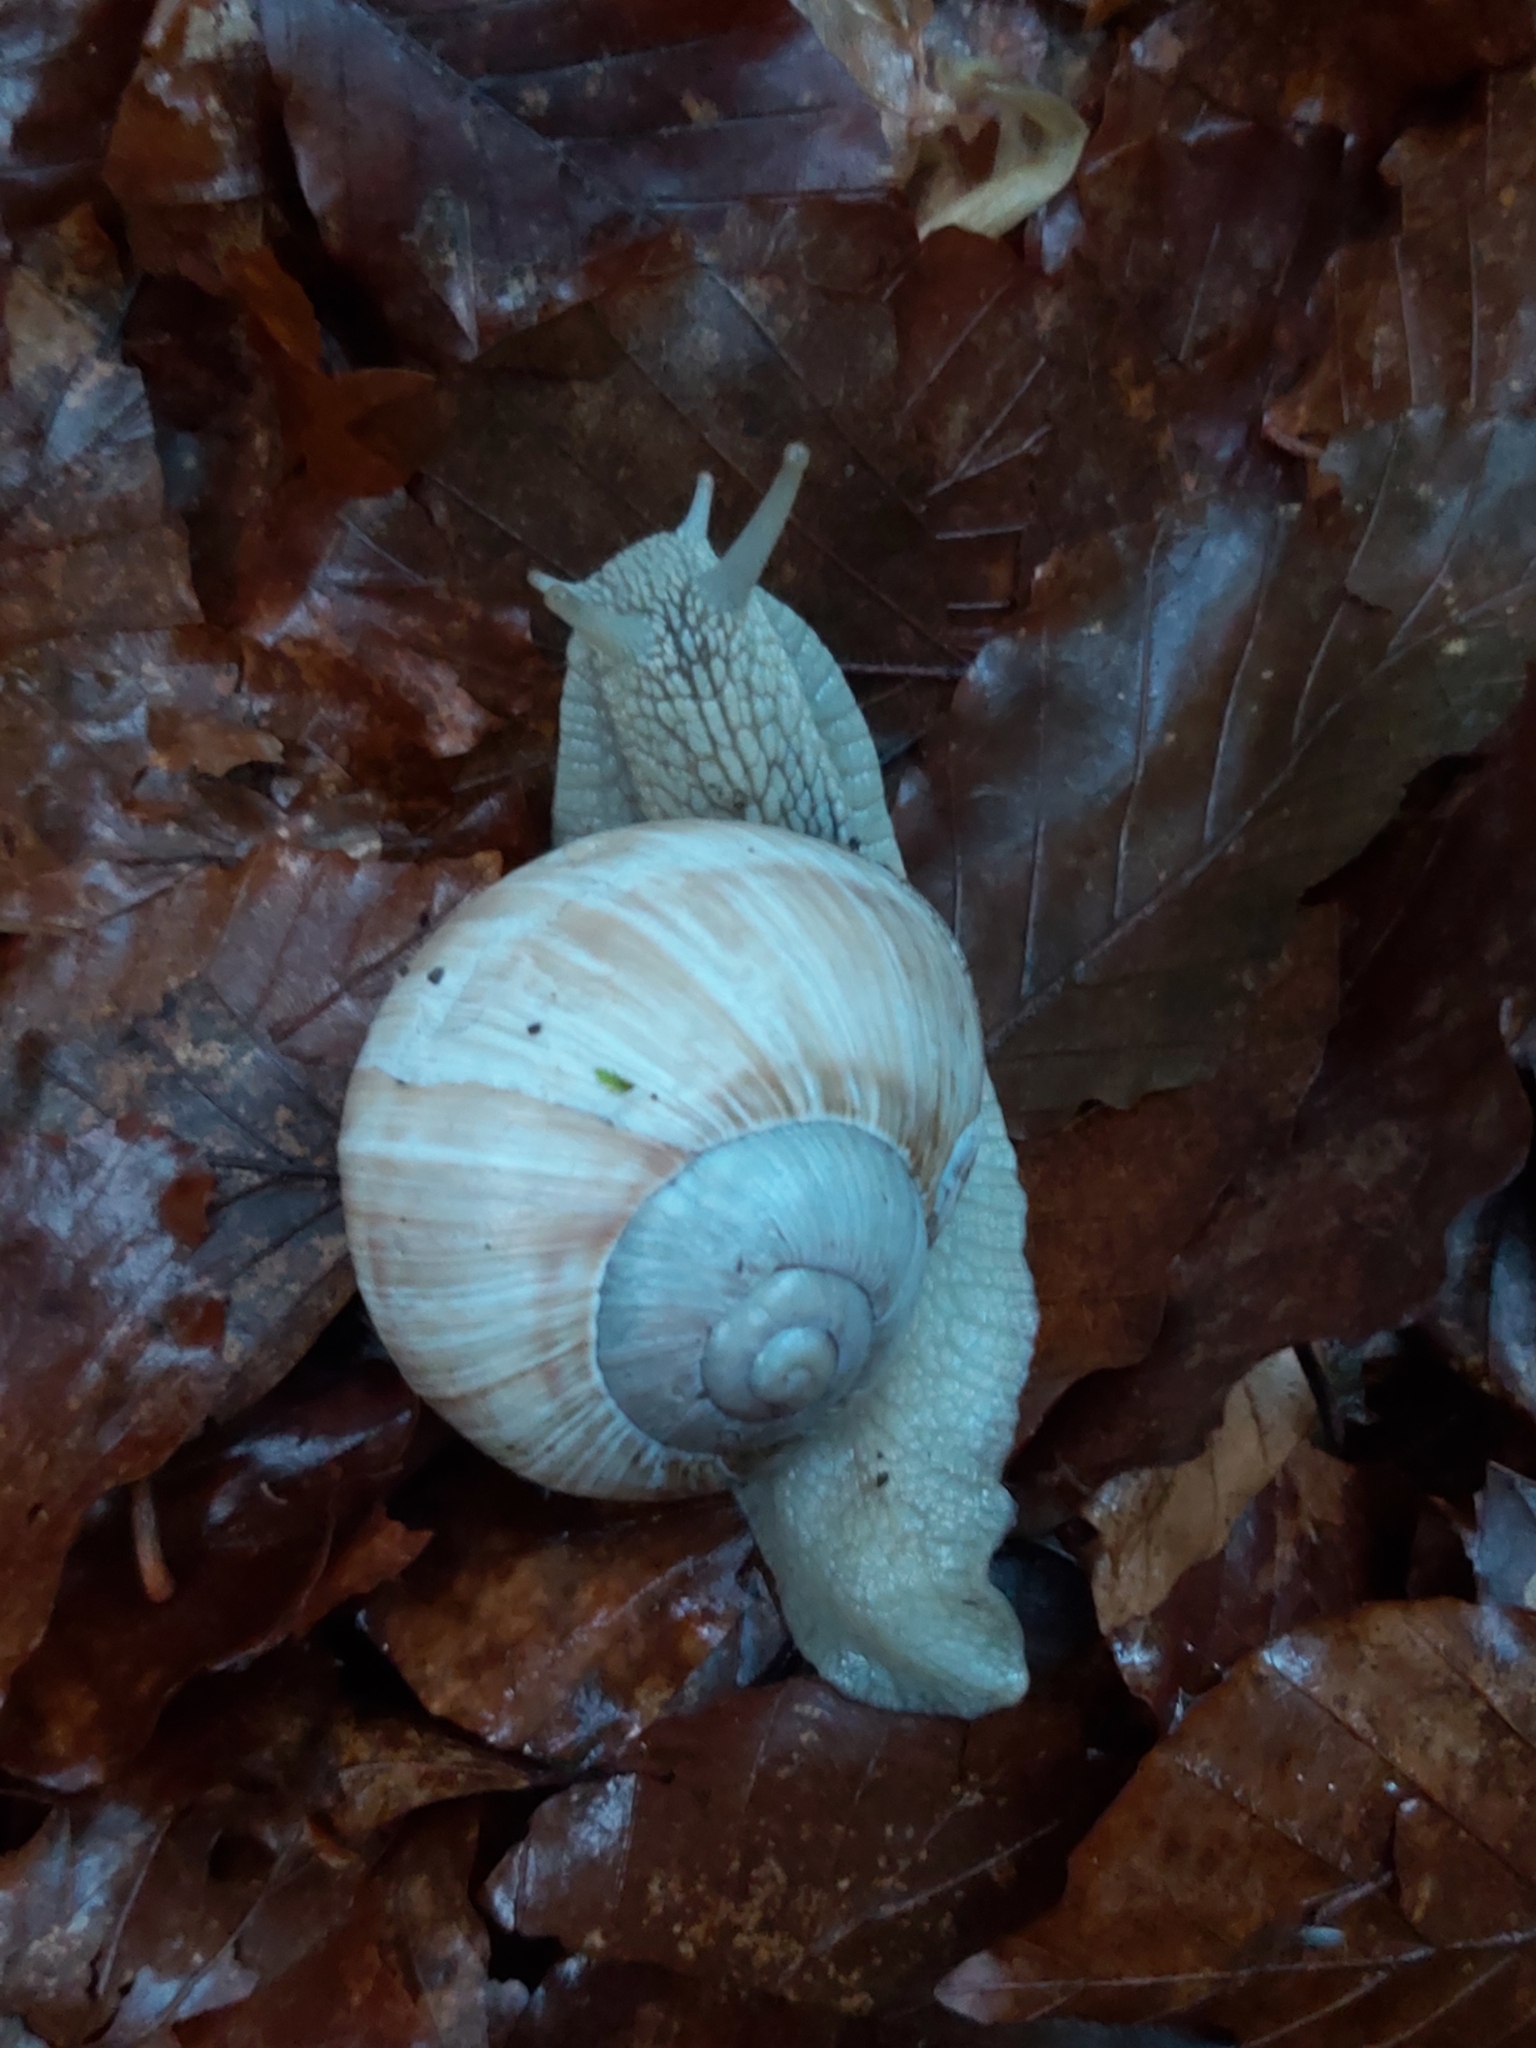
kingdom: Animalia
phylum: Mollusca
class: Gastropoda
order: Stylommatophora
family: Helicidae
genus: Helix
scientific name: Helix pomatia
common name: Roman snail
